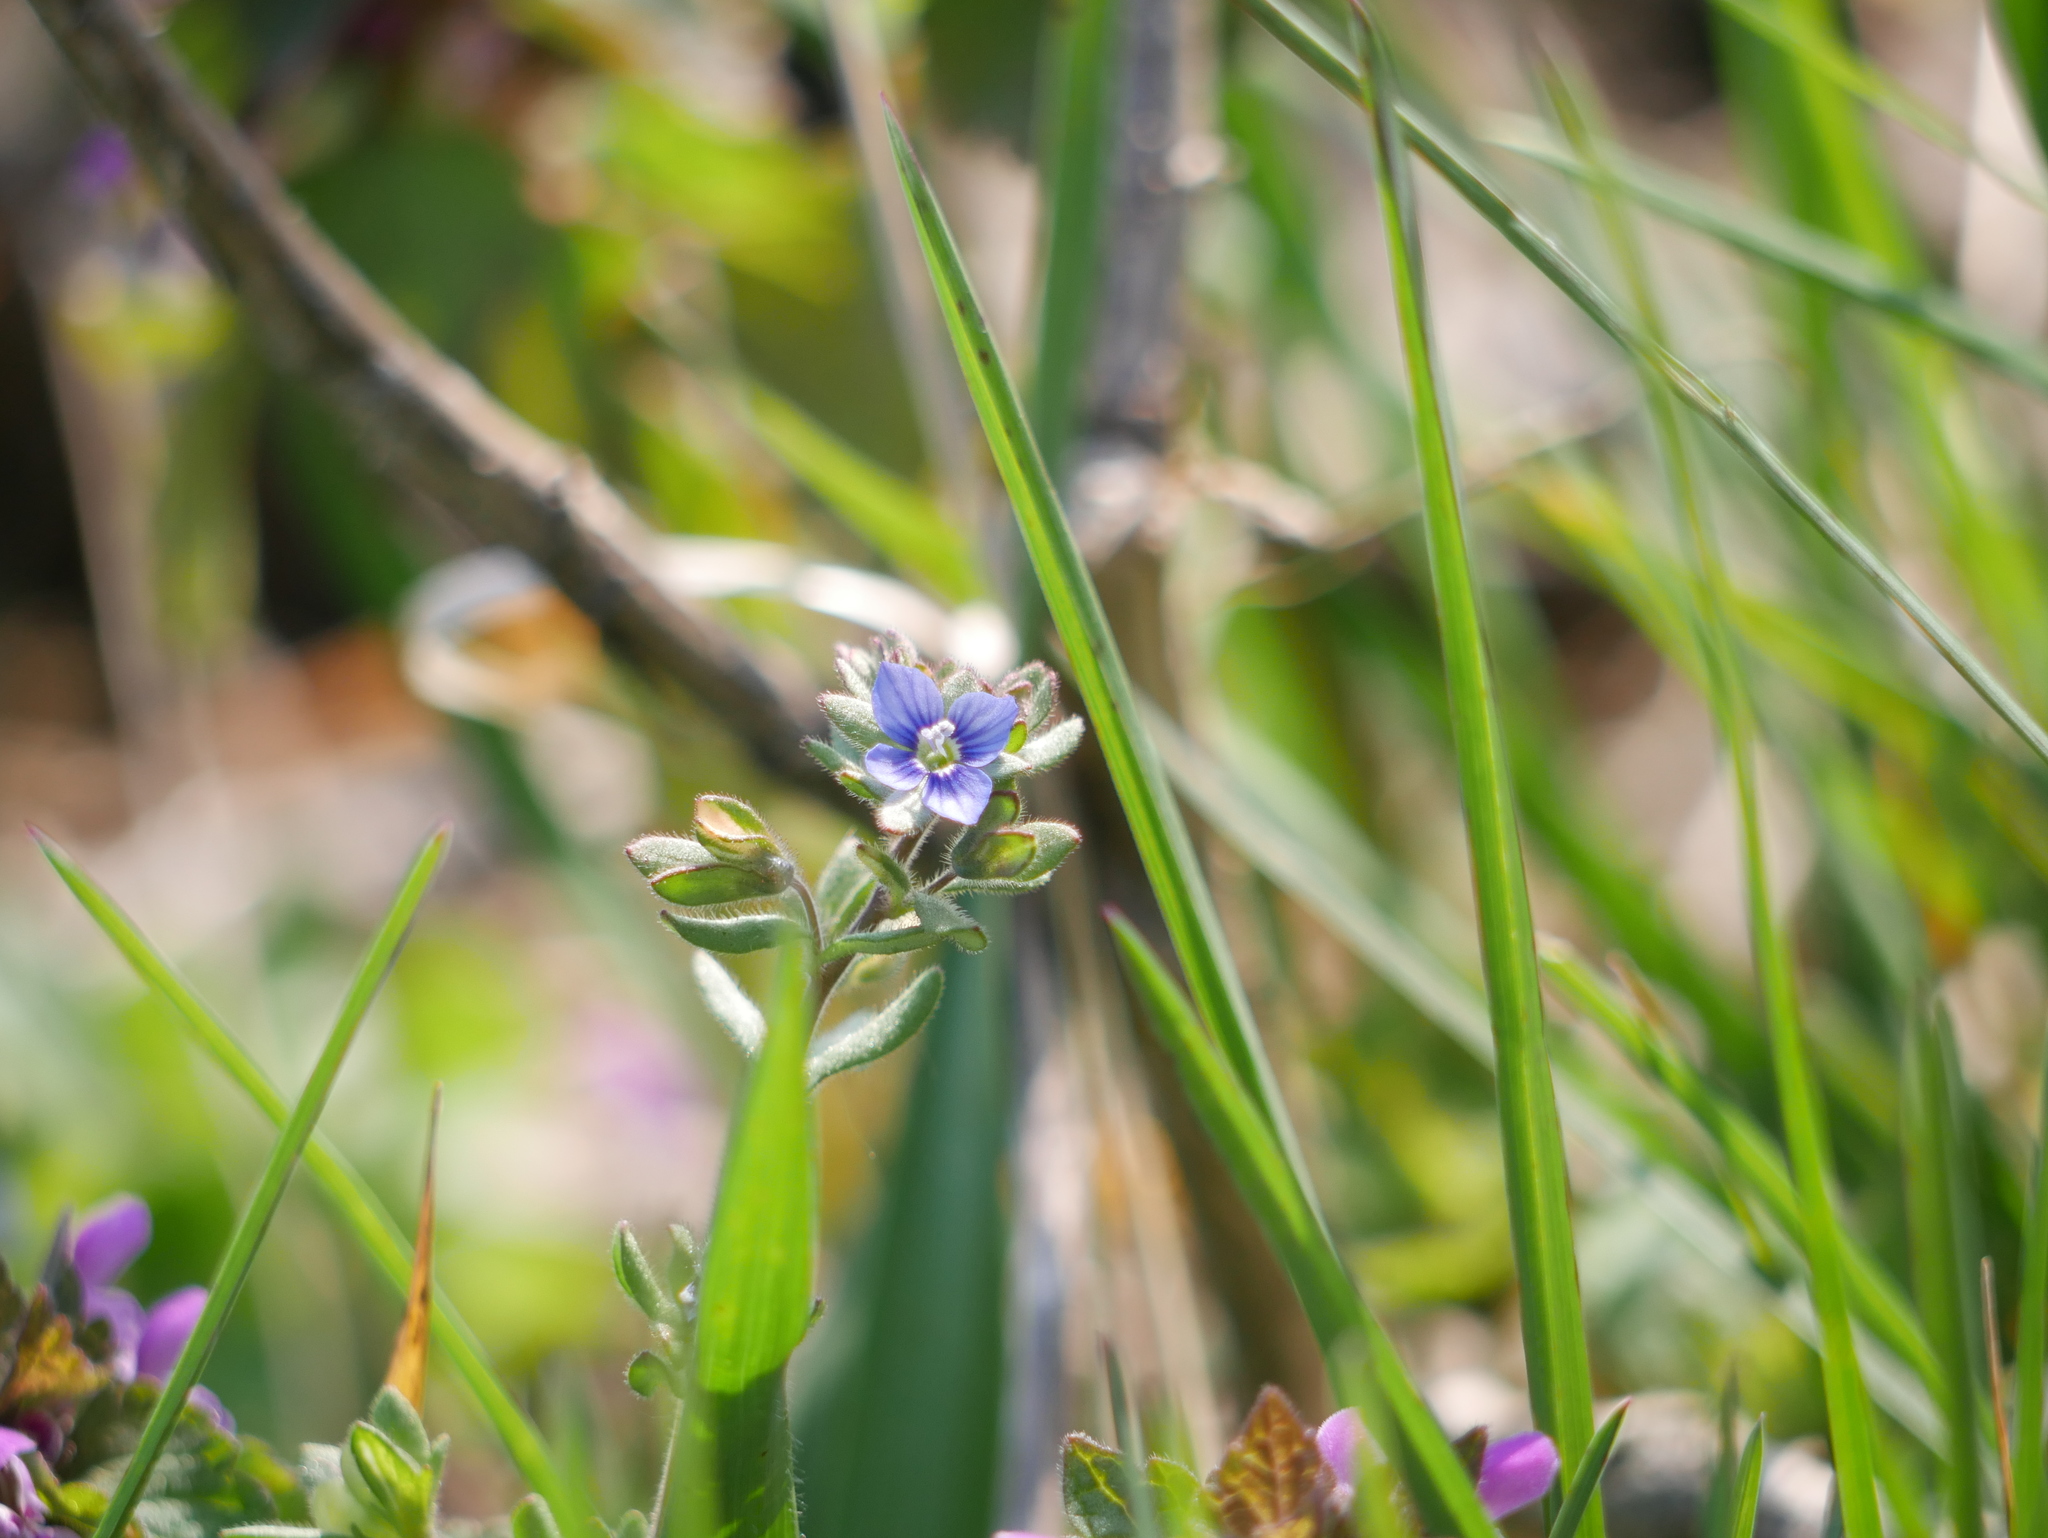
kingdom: Plantae
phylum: Tracheophyta
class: Magnoliopsida
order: Lamiales
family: Plantaginaceae
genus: Veronica
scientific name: Veronica triphyllos
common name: Fingered speedwell
